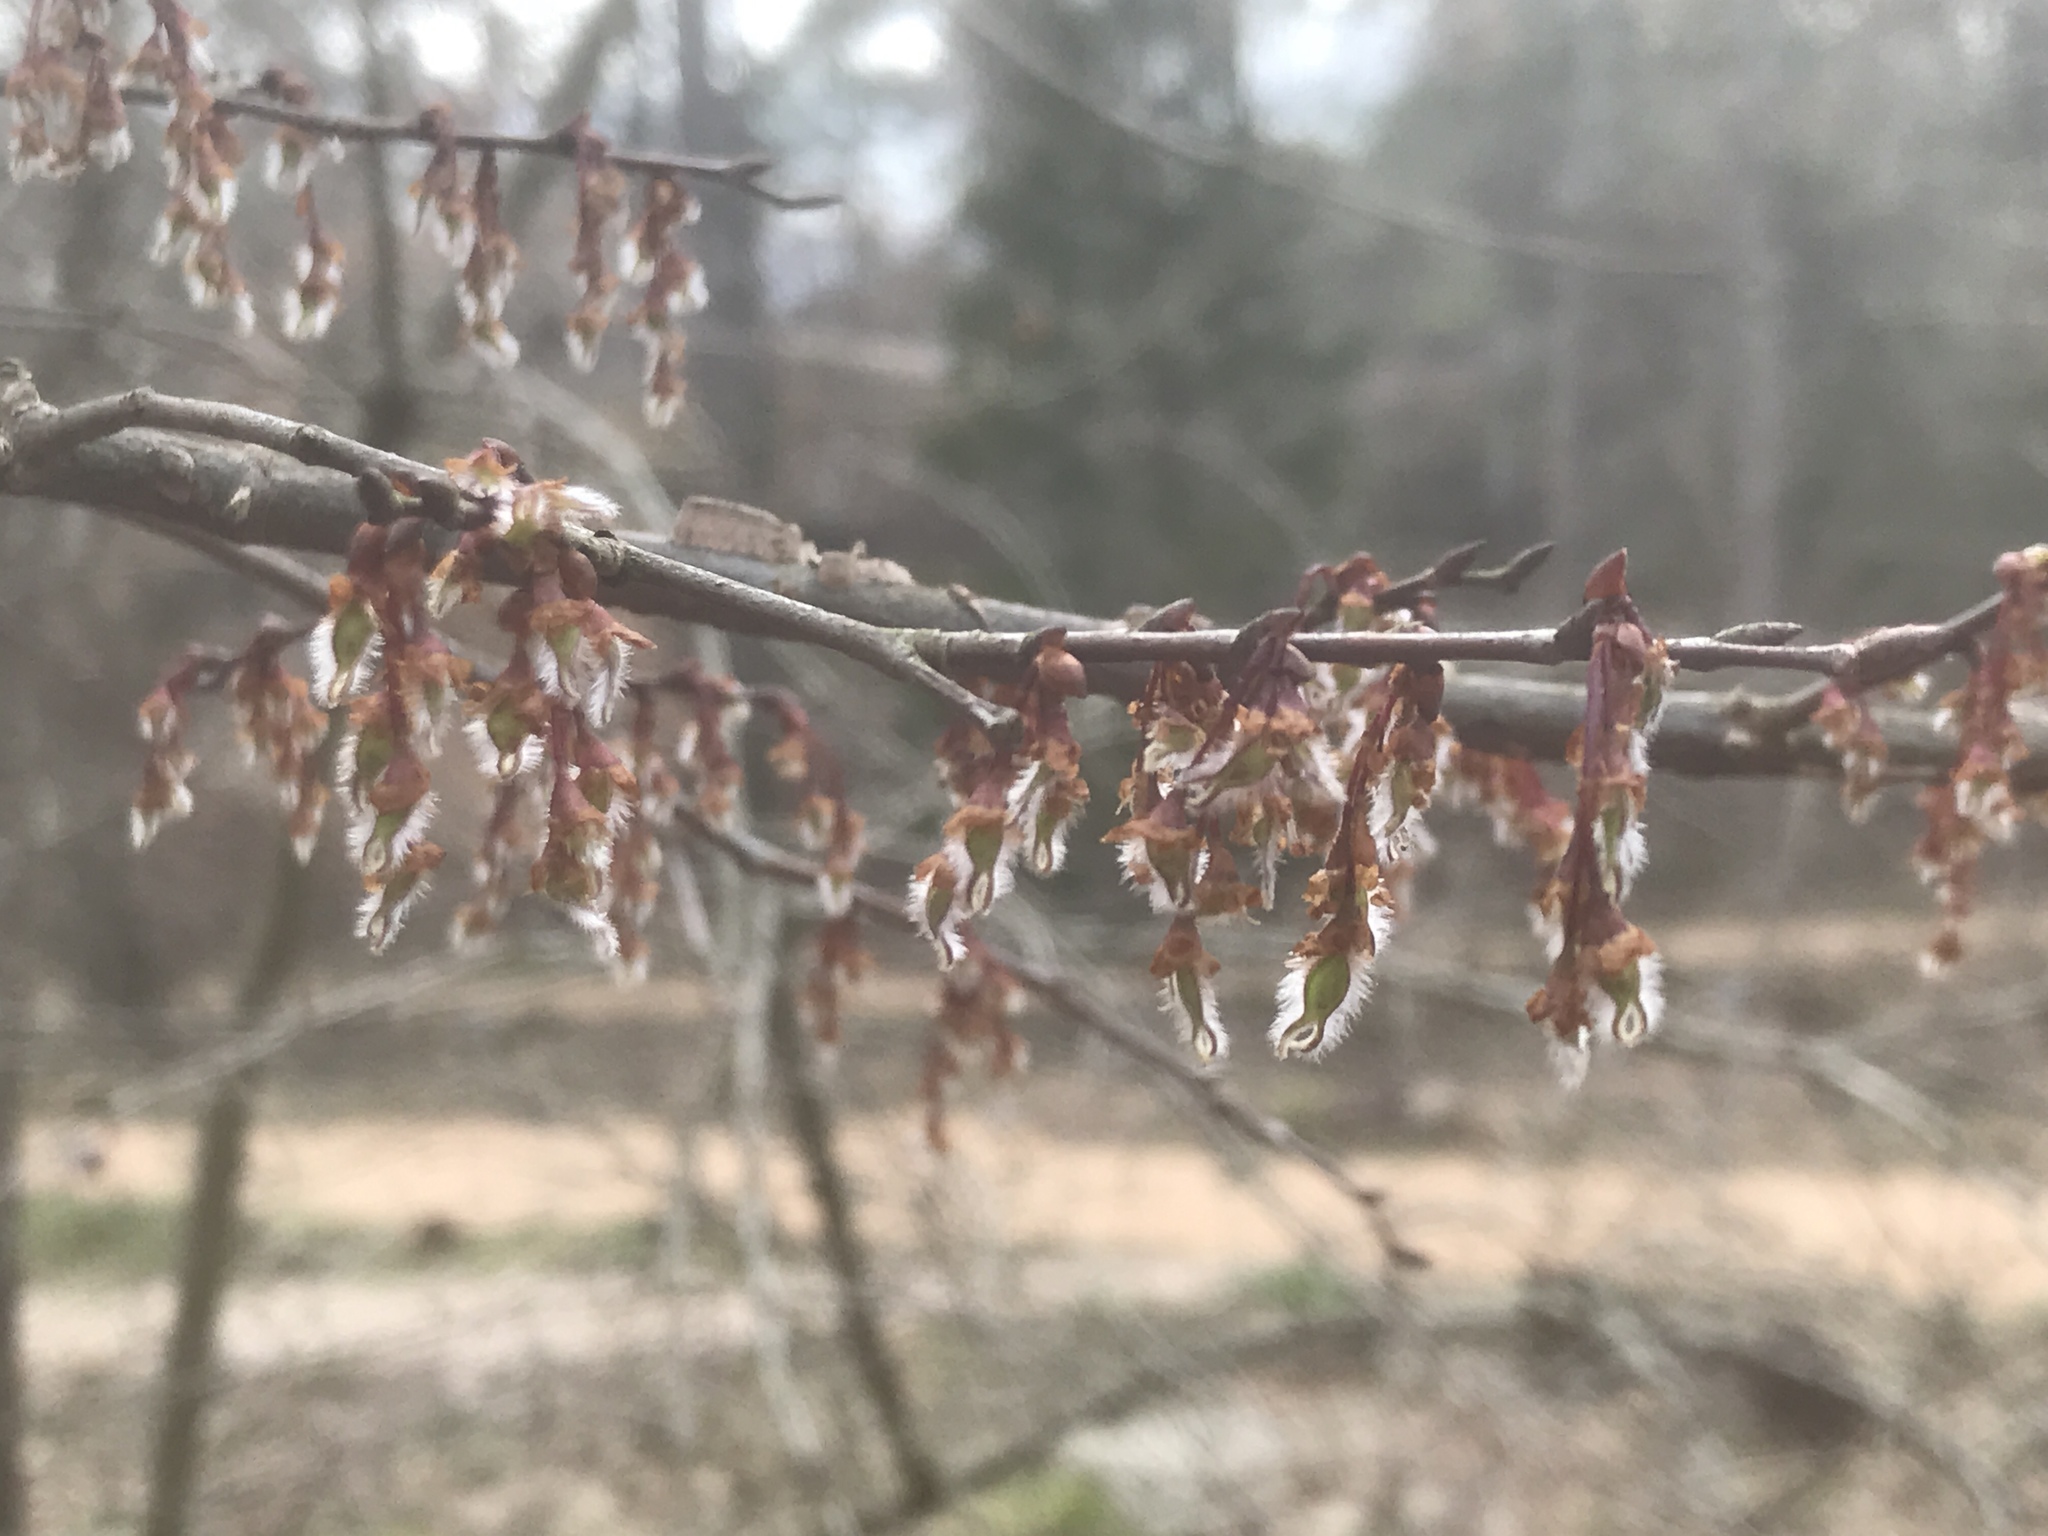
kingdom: Plantae
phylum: Tracheophyta
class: Magnoliopsida
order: Rosales
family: Ulmaceae
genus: Ulmus
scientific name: Ulmus alata
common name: Winged elm
